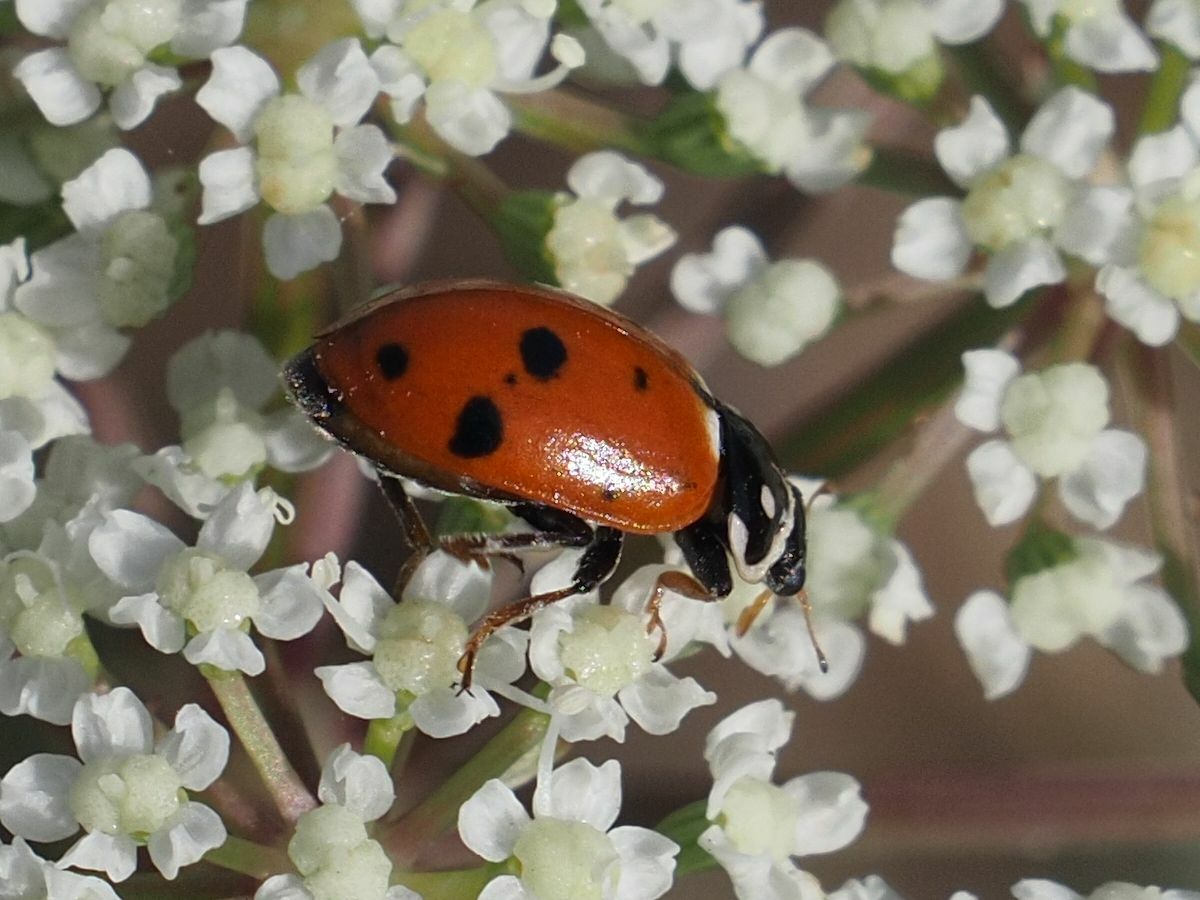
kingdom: Animalia
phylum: Arthropoda
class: Insecta
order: Coleoptera
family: Coccinellidae
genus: Hippodamia
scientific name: Hippodamia variegata
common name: Ladybird beetle
